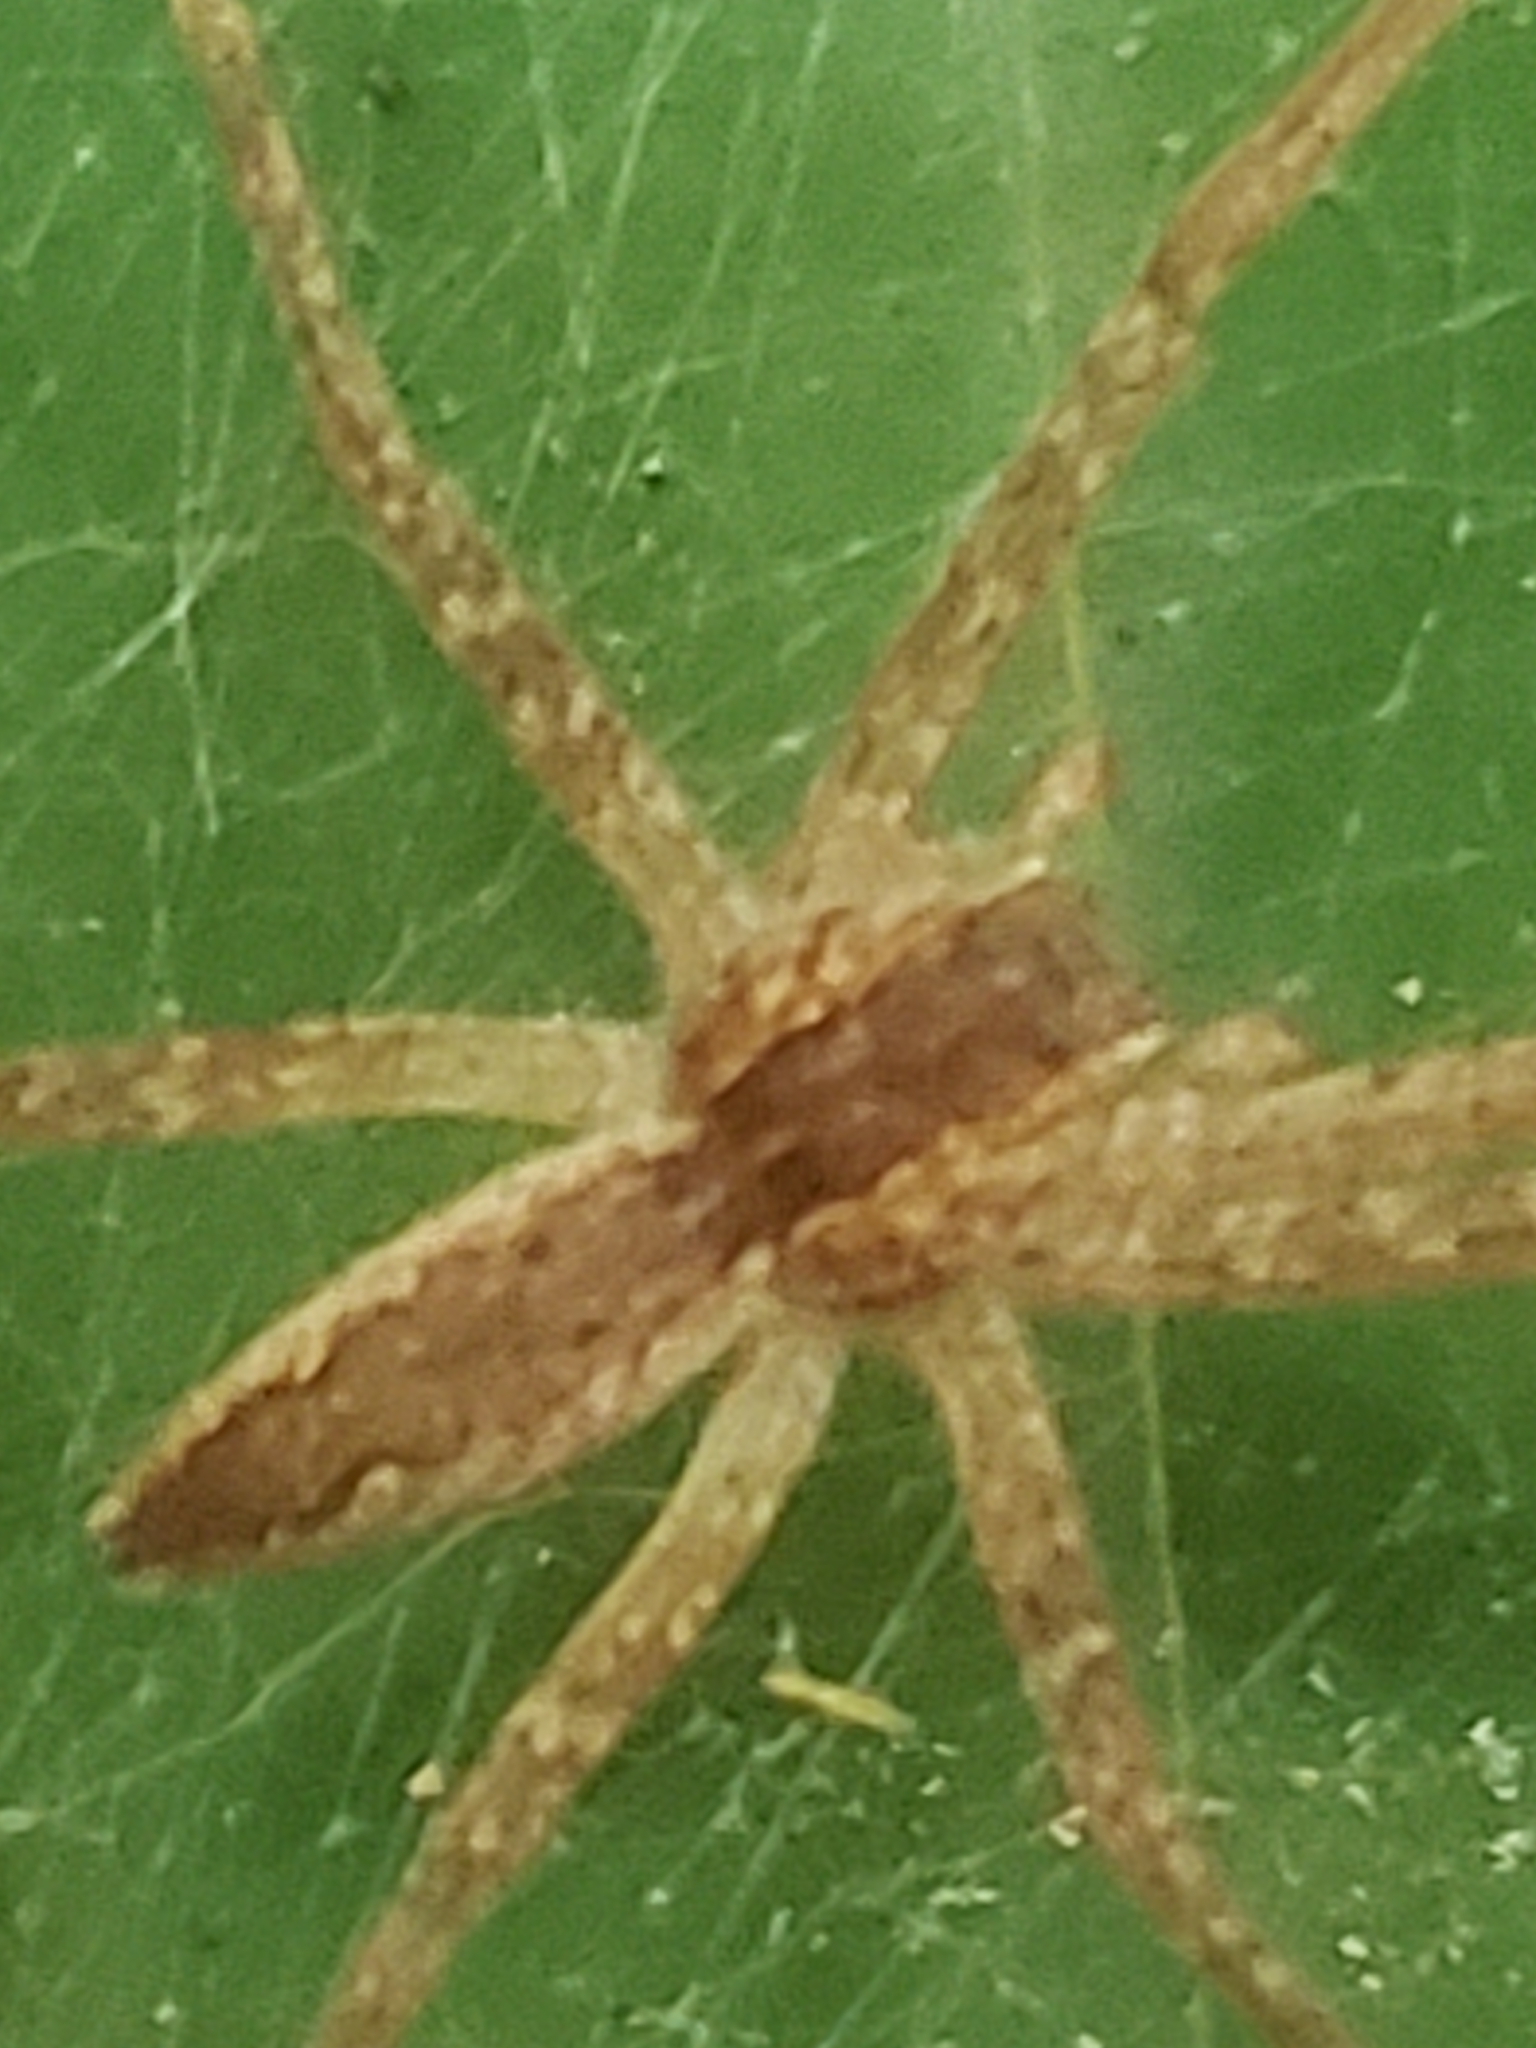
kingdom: Animalia
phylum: Arthropoda
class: Arachnida
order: Araneae
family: Pisauridae
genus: Pisaurina
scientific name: Pisaurina mira
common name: American nursery web spider
